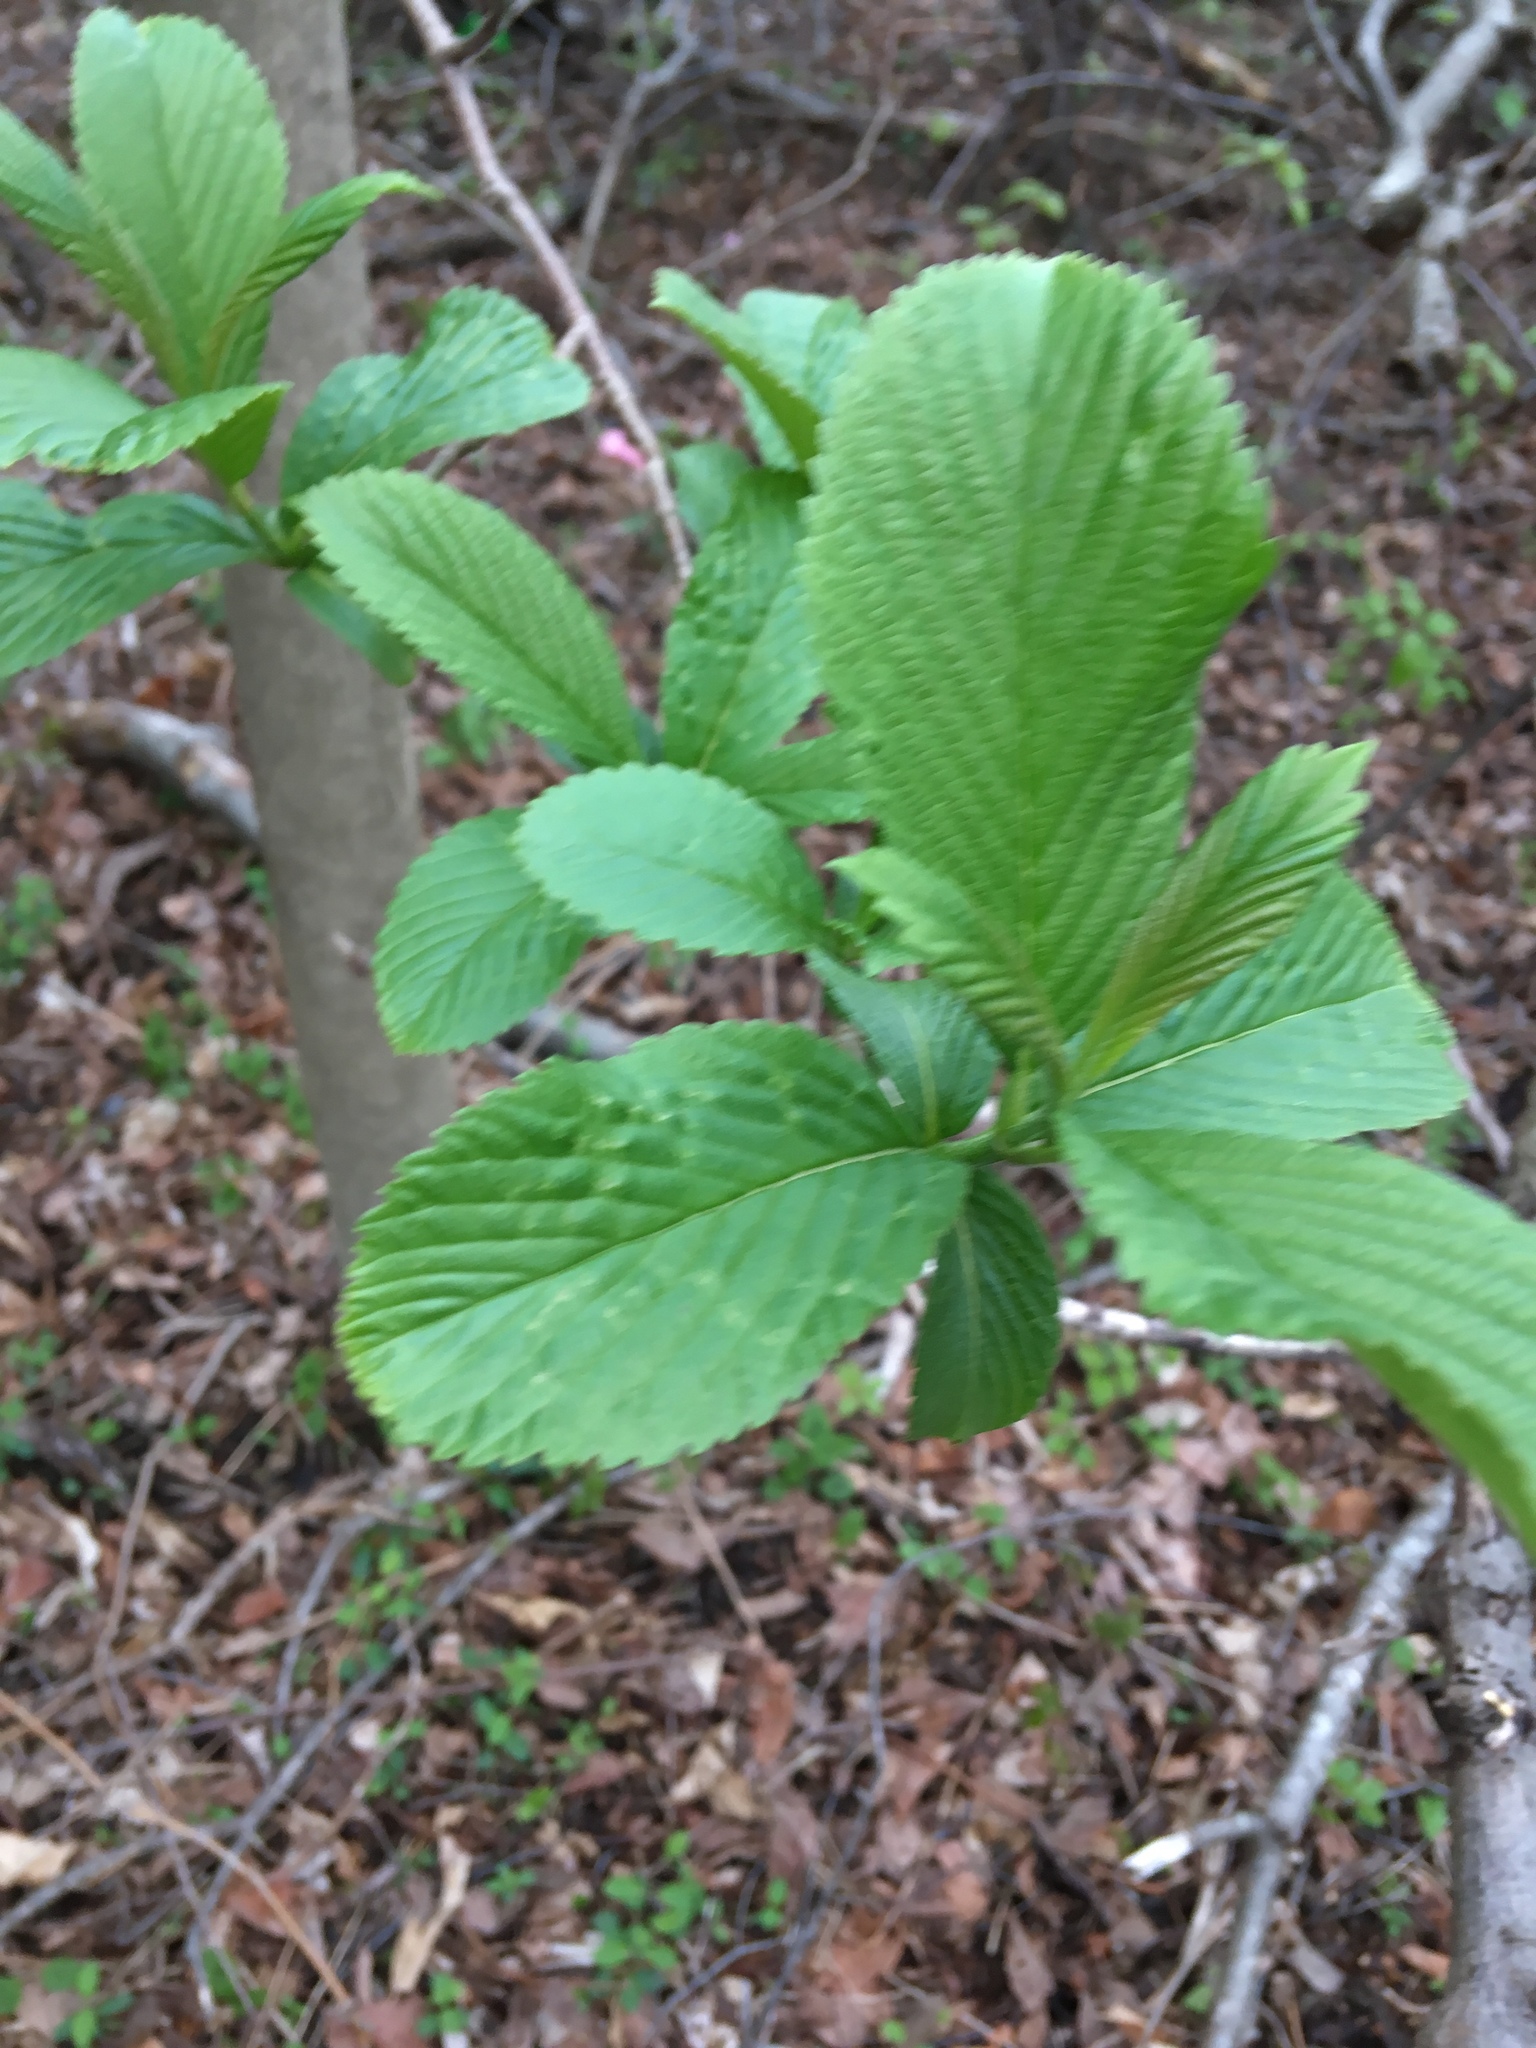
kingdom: Plantae
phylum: Tracheophyta
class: Magnoliopsida
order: Ericales
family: Clethraceae
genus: Clethra
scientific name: Clethra alnifolia
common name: Sweet pepperbush
